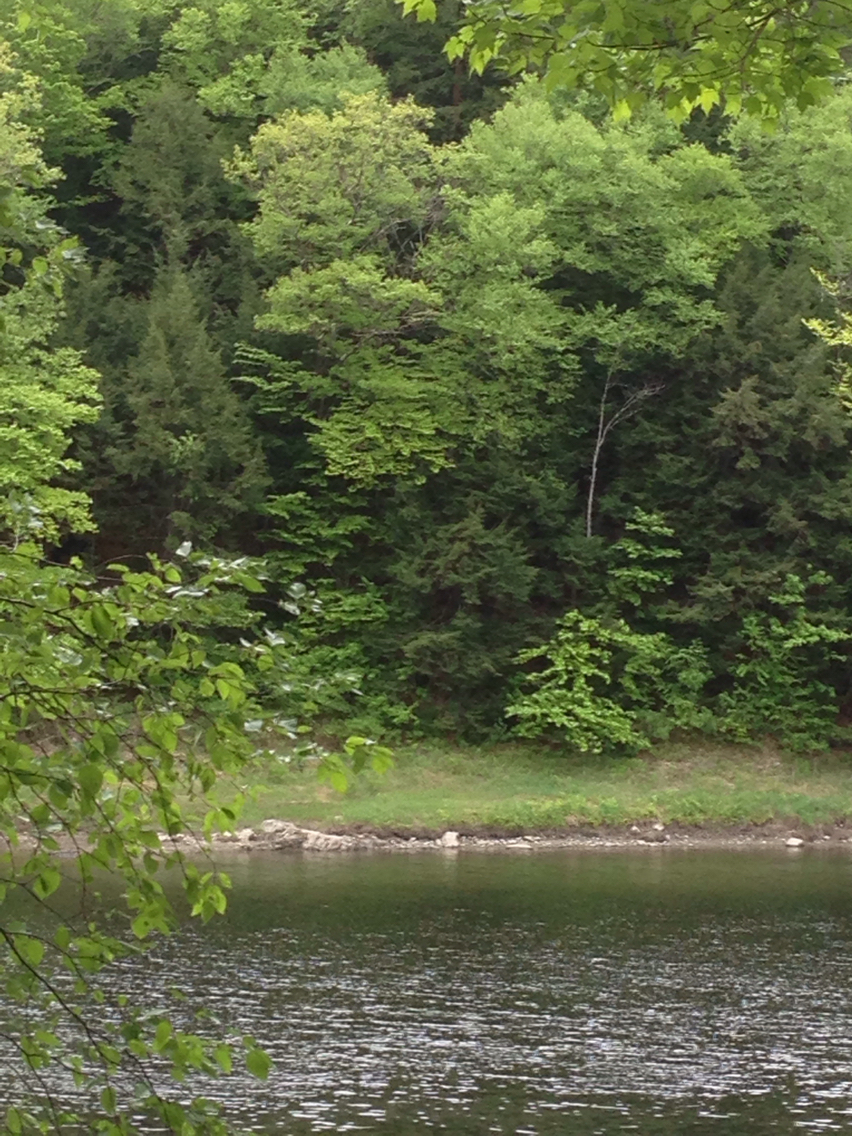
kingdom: Plantae
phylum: Tracheophyta
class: Pinopsida
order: Pinales
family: Pinaceae
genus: Tsuga
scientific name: Tsuga canadensis
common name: Eastern hemlock
